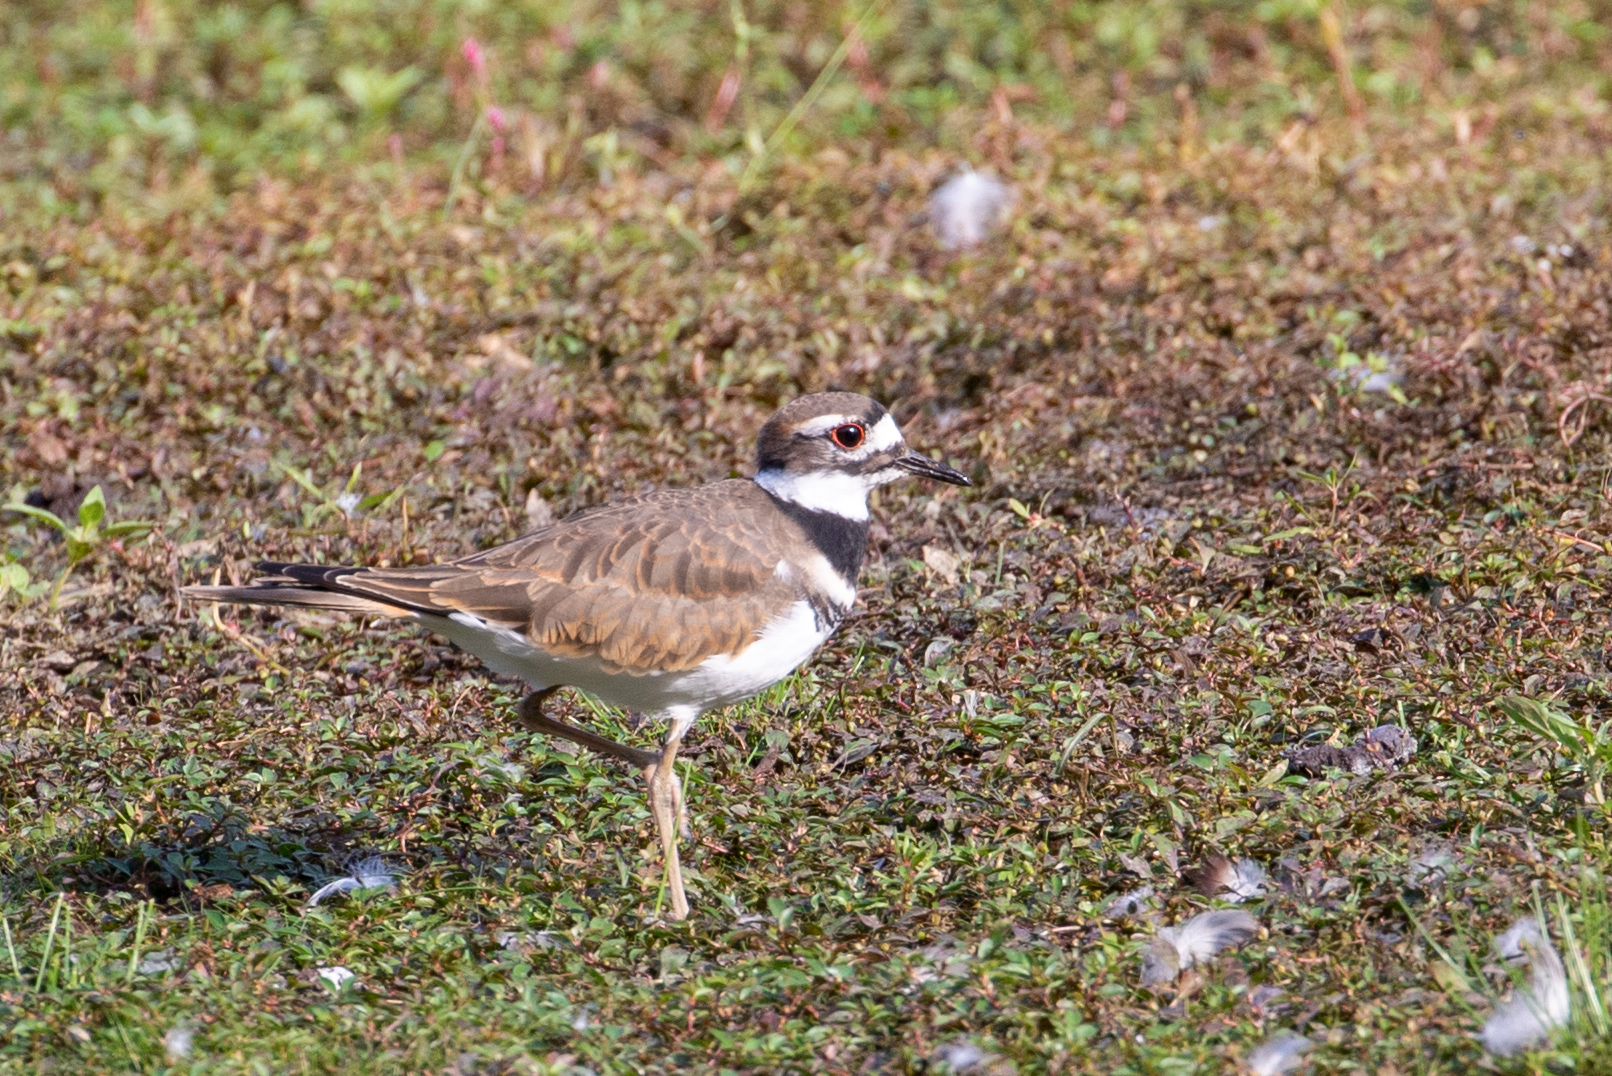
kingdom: Animalia
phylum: Chordata
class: Aves
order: Charadriiformes
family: Charadriidae
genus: Charadrius
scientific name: Charadrius vociferus
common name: Killdeer
